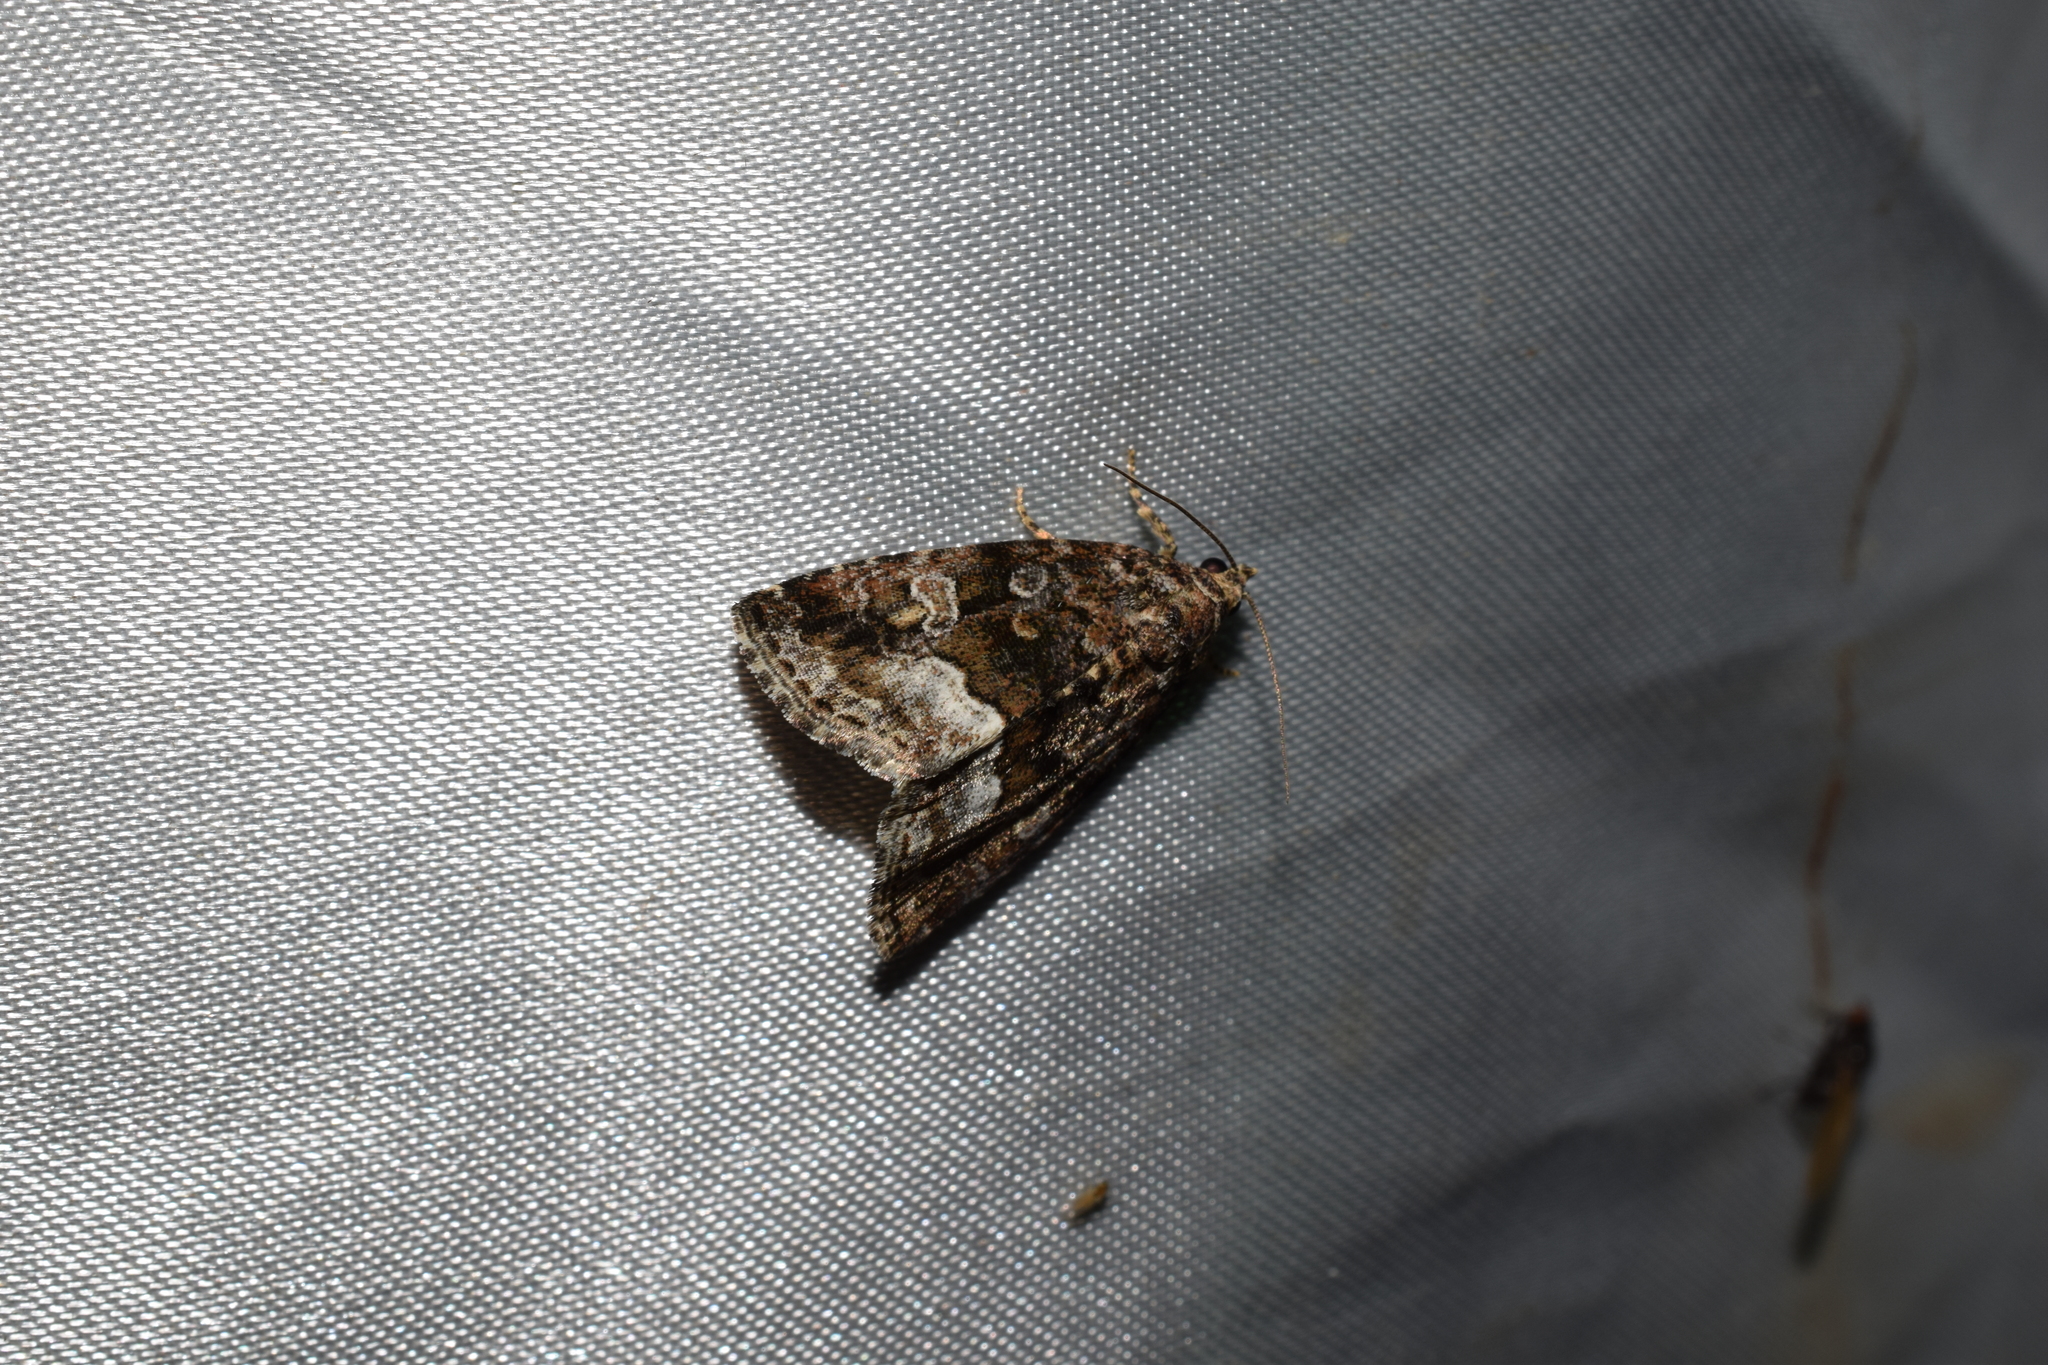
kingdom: Animalia
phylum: Arthropoda
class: Insecta
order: Lepidoptera
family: Noctuidae
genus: Deltote
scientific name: Deltote pygarga
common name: Marbled white spot
